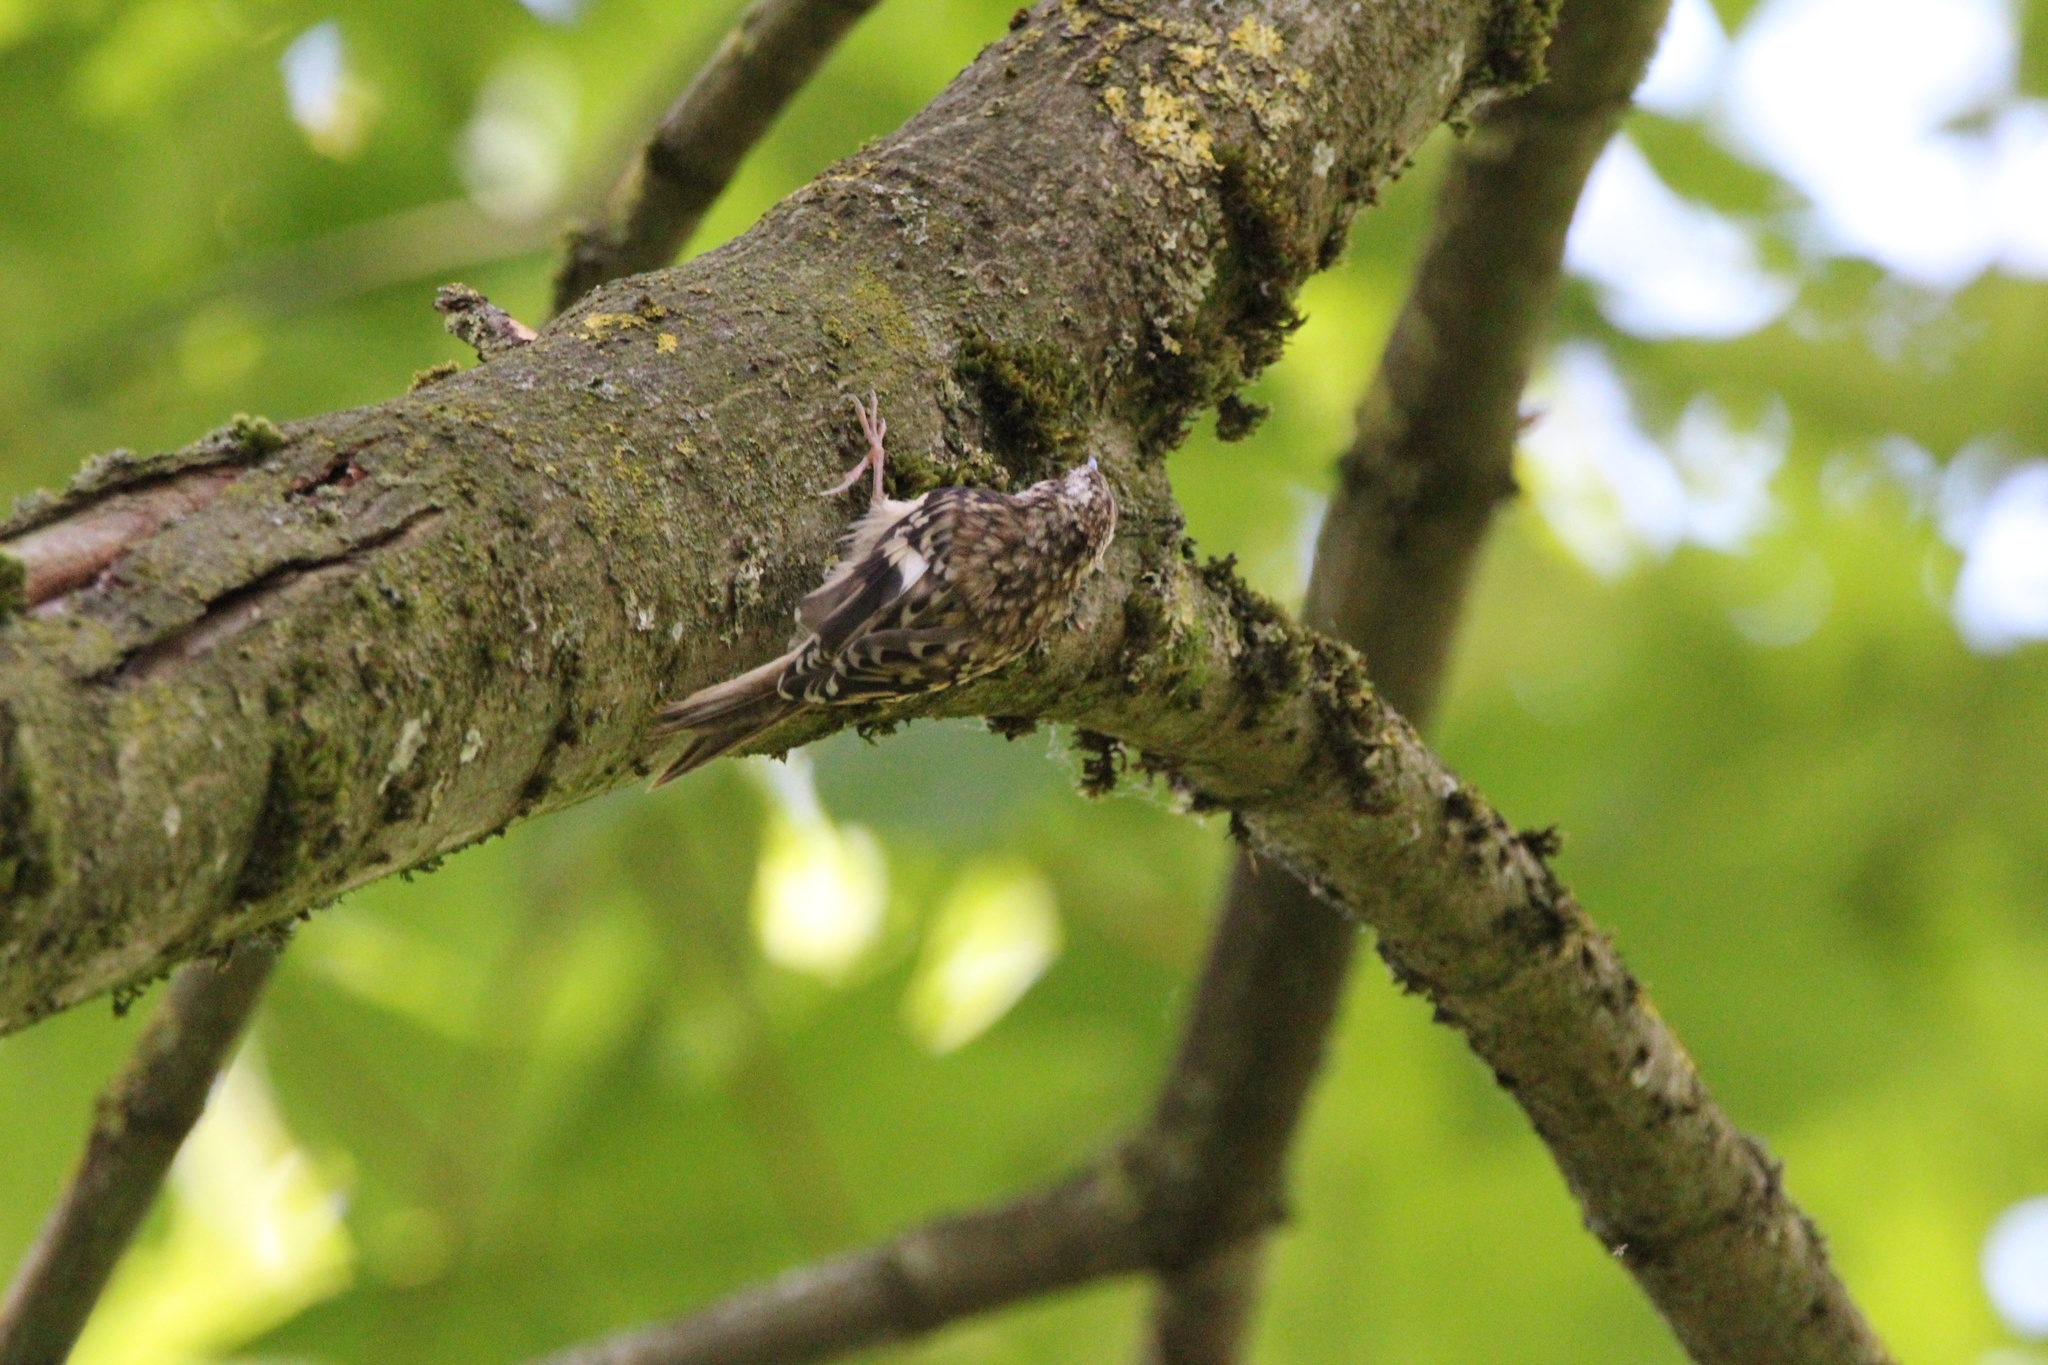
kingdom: Animalia
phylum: Chordata
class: Aves
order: Passeriformes
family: Certhiidae
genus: Certhia
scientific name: Certhia americana
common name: Brown creeper
